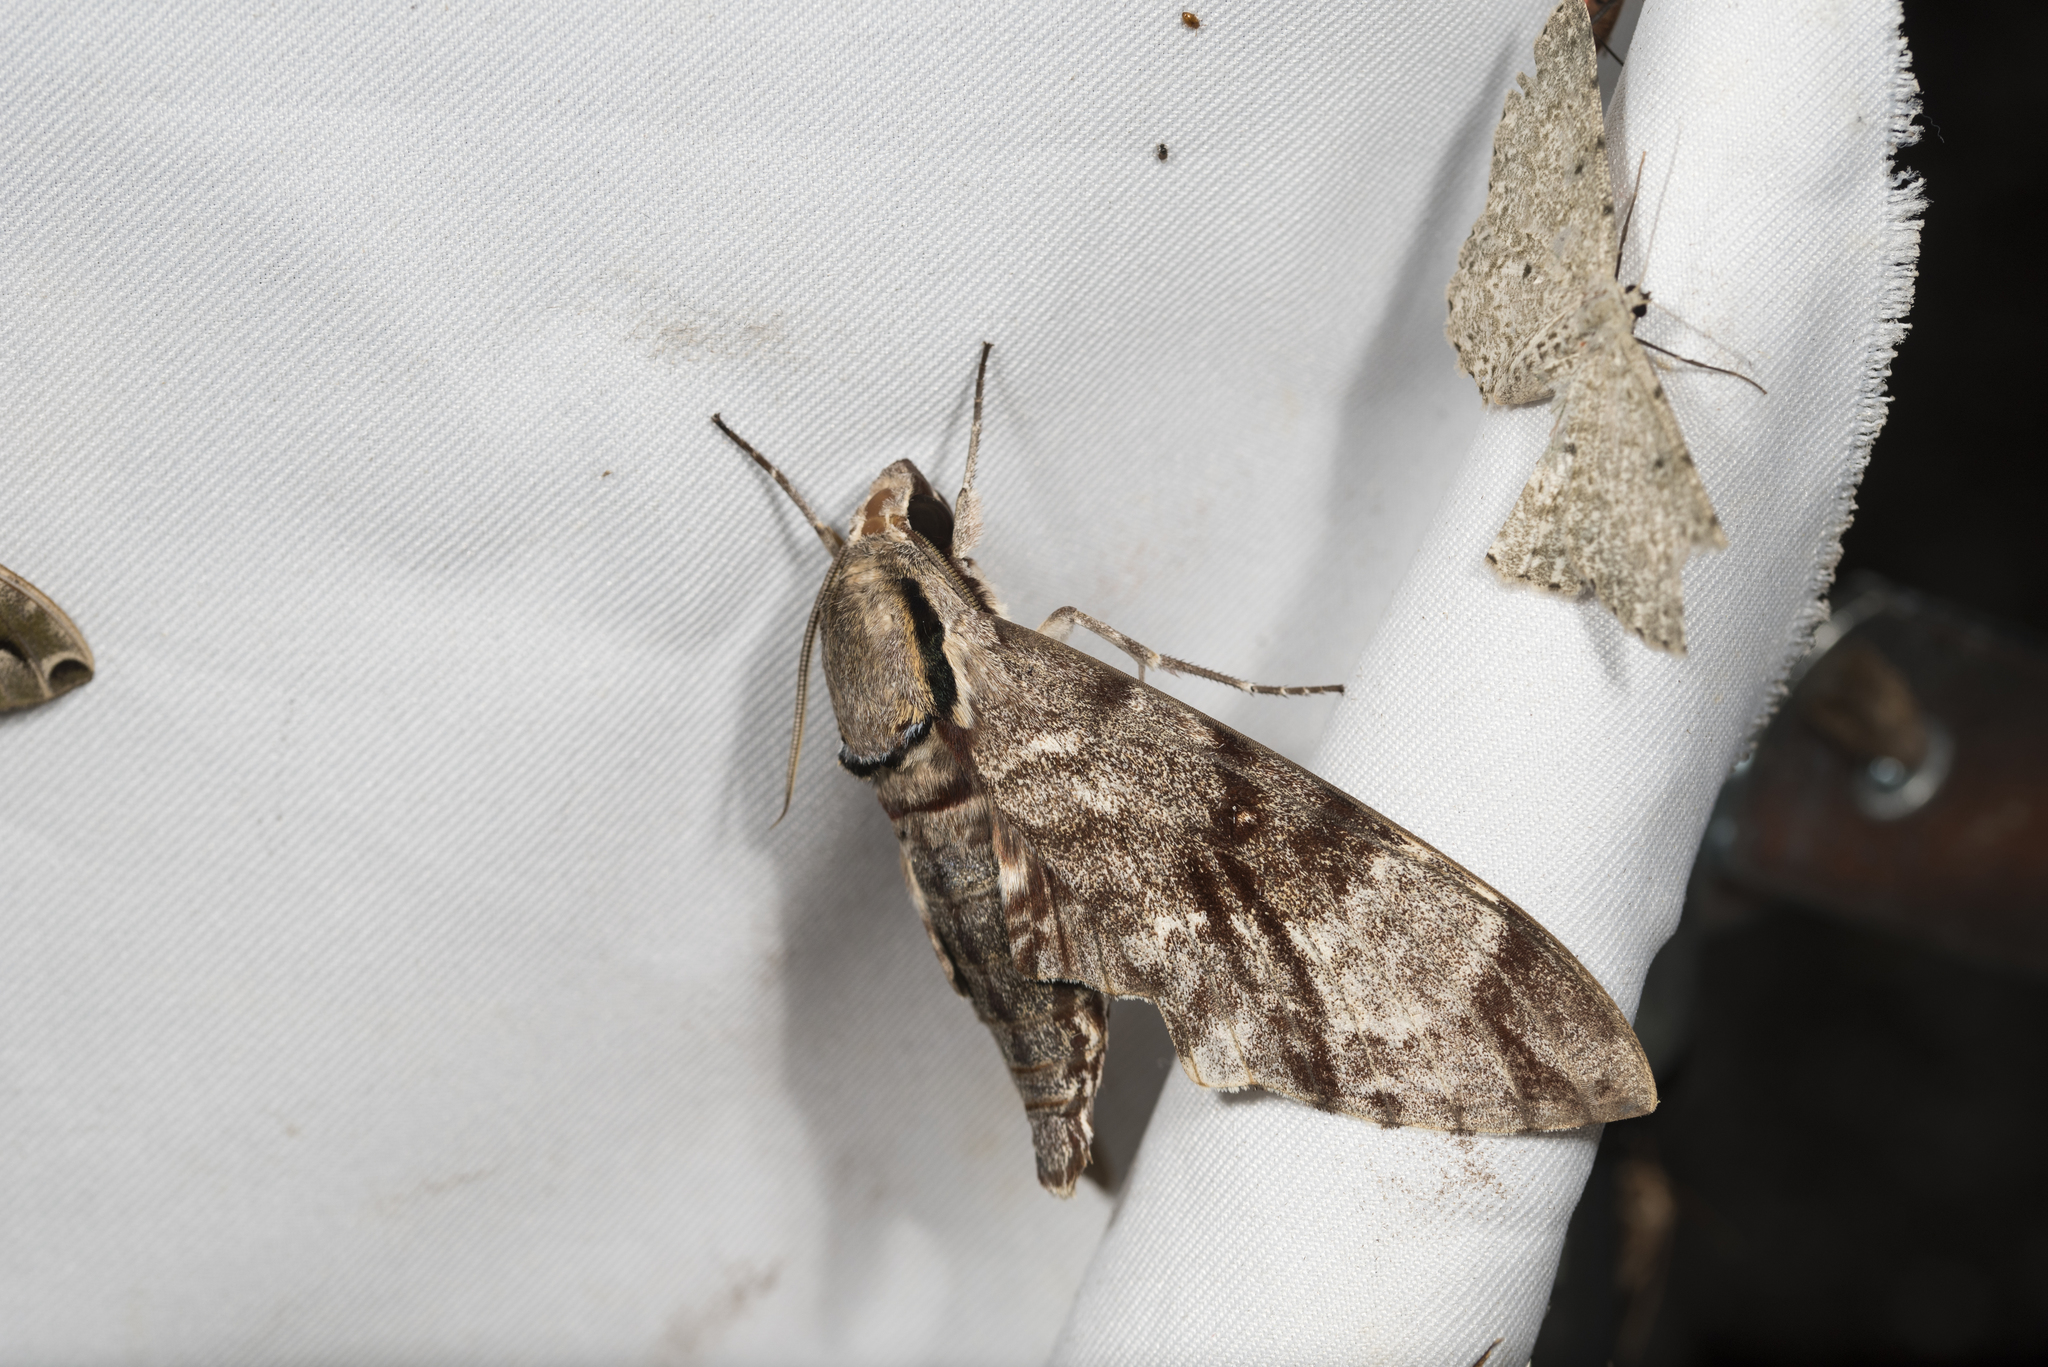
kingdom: Animalia
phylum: Arthropoda
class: Insecta
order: Lepidoptera
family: Sphingidae
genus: Notonagemia
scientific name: Notonagemia analis
